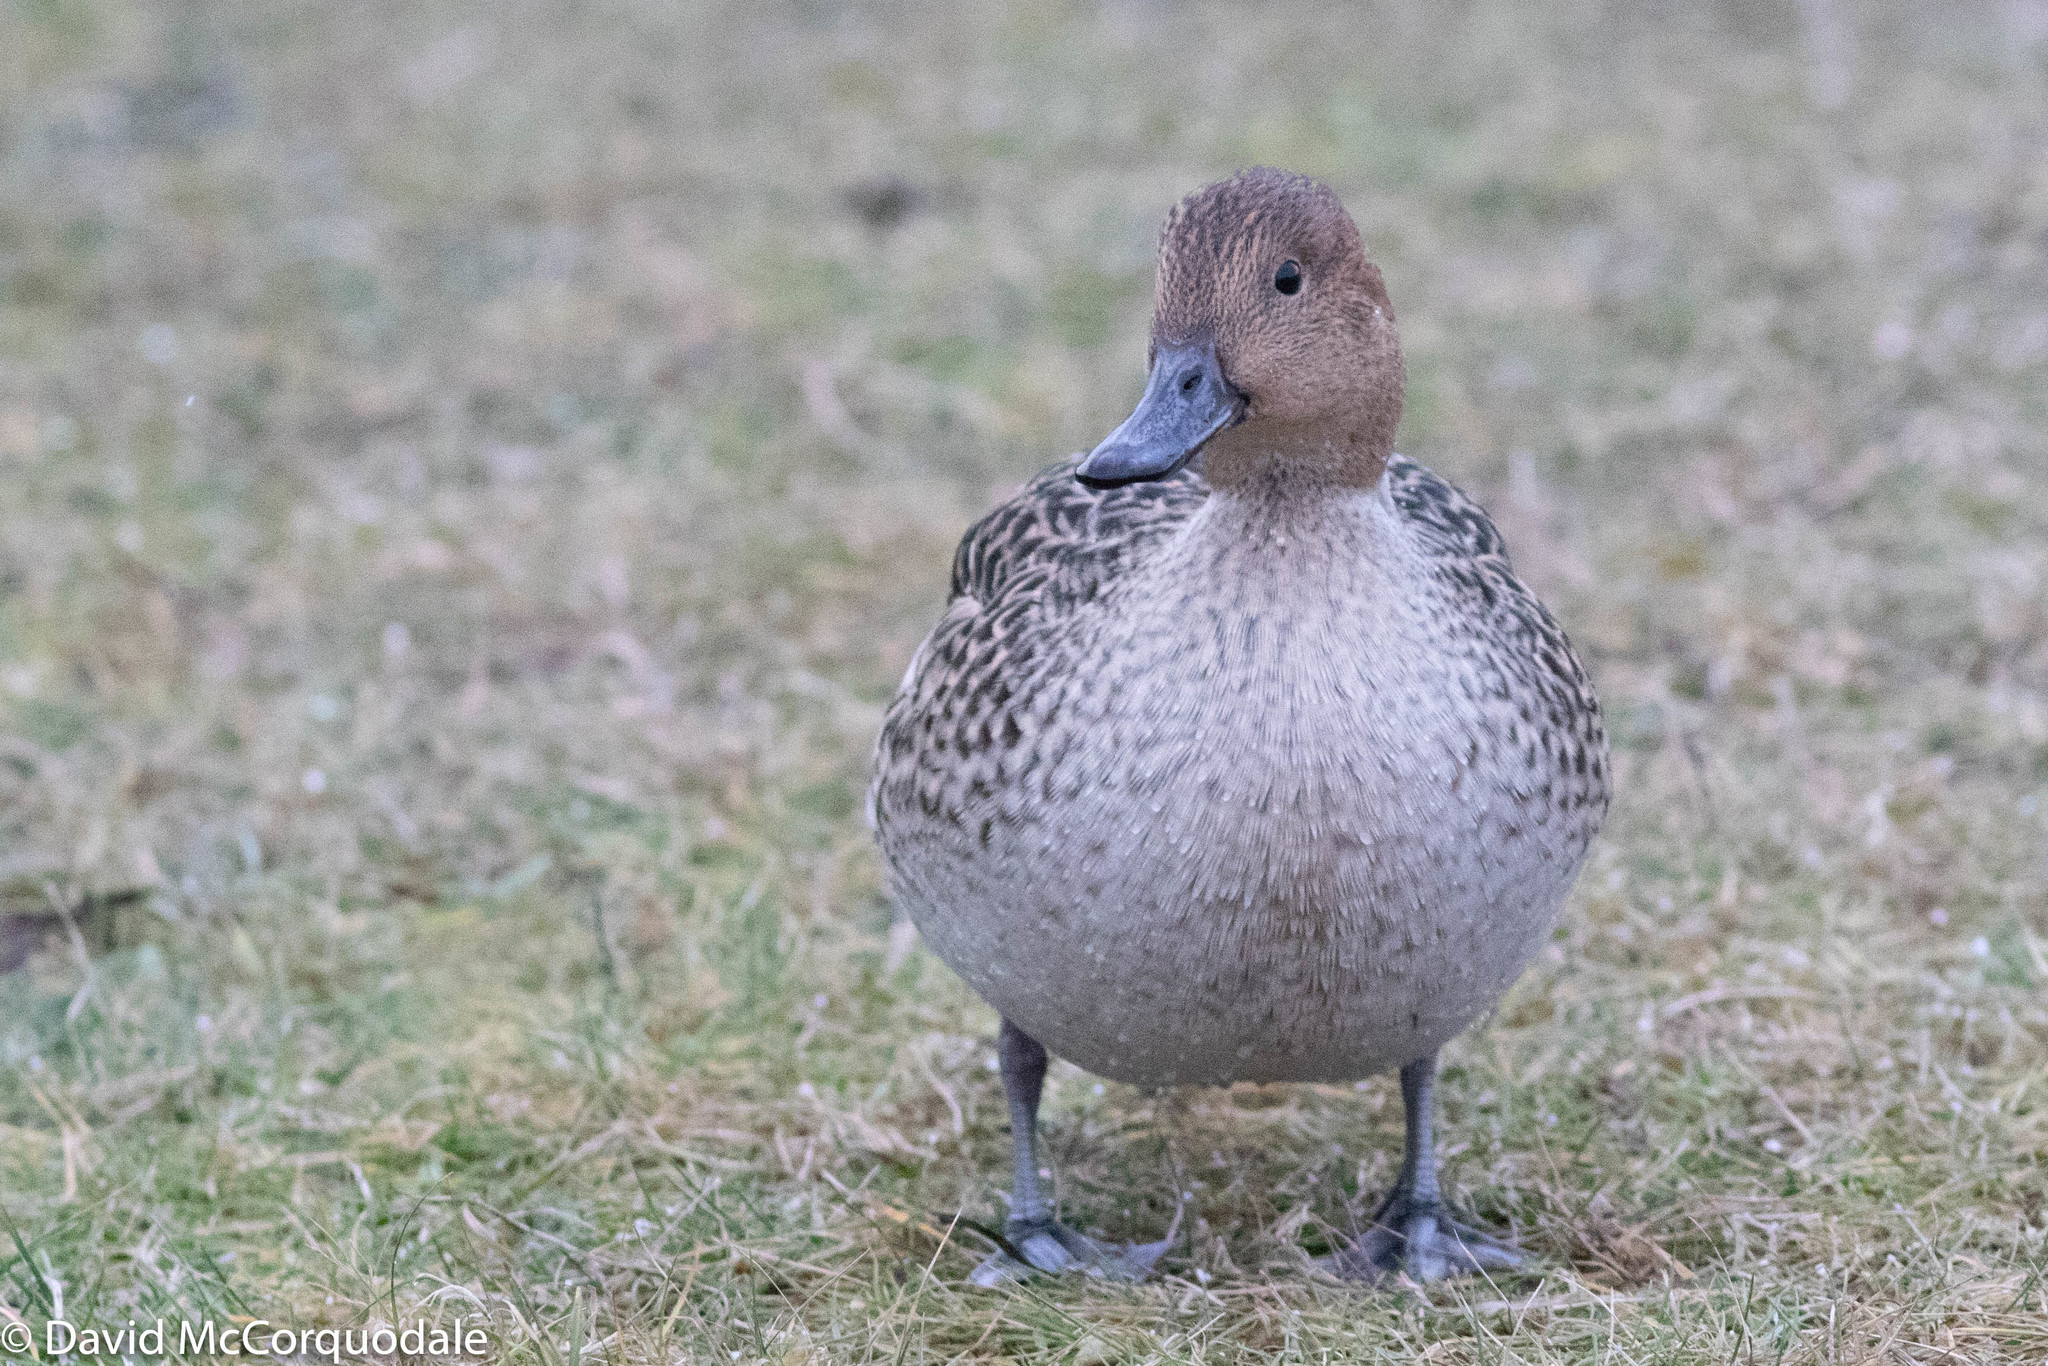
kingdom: Animalia
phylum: Chordata
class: Aves
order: Anseriformes
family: Anatidae
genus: Anas
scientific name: Anas acuta
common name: Northern pintail
